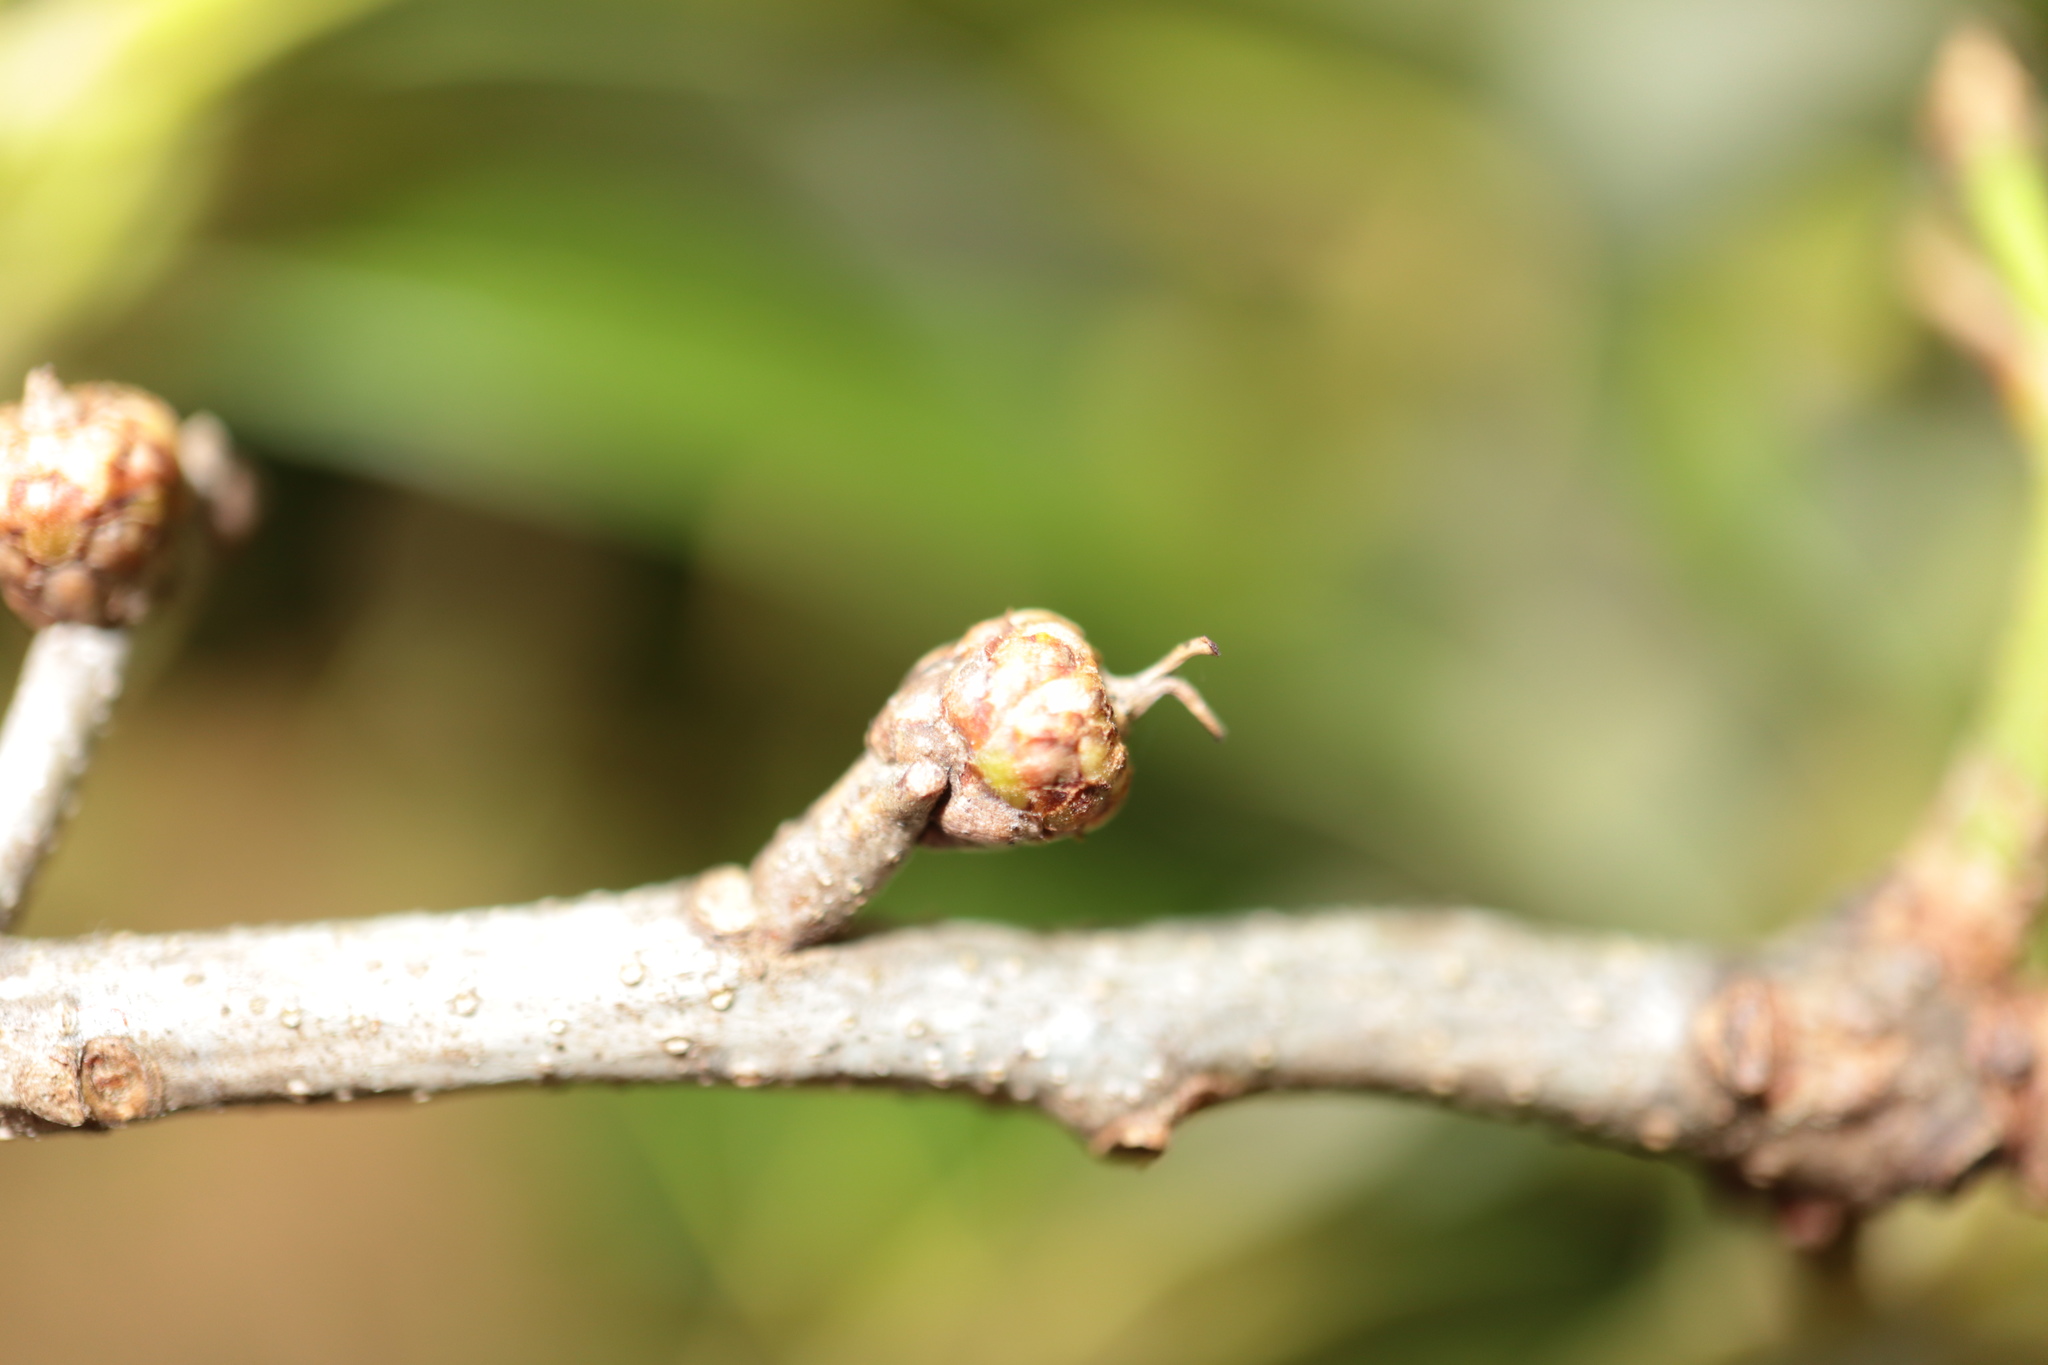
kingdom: Plantae
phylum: Tracheophyta
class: Magnoliopsida
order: Fagales
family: Fagaceae
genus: Quercus
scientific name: Quercus leana
